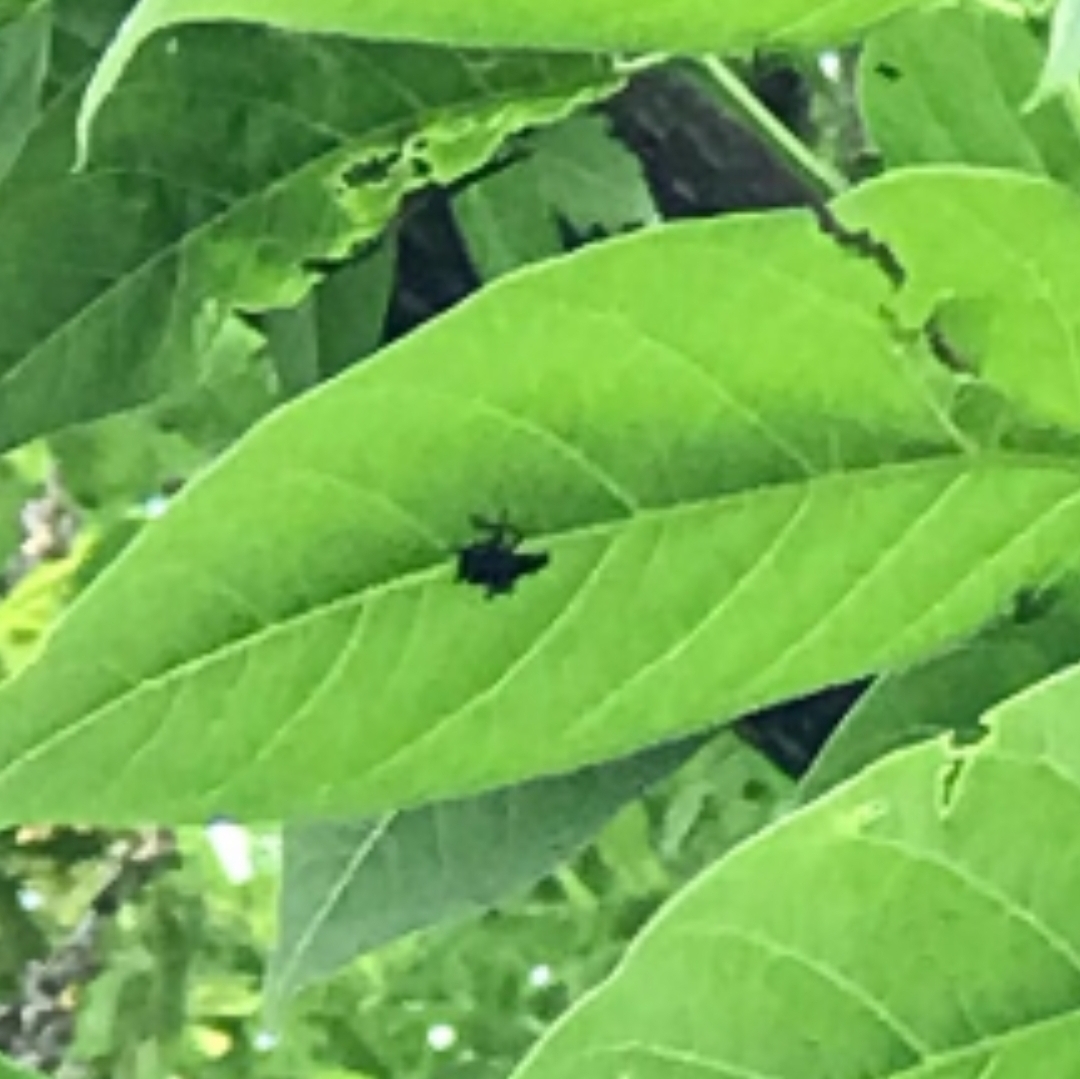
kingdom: Animalia
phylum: Arthropoda
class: Insecta
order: Hemiptera
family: Fulgoridae
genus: Lycorma
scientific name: Lycorma delicatula
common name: Spotted lanternfly
